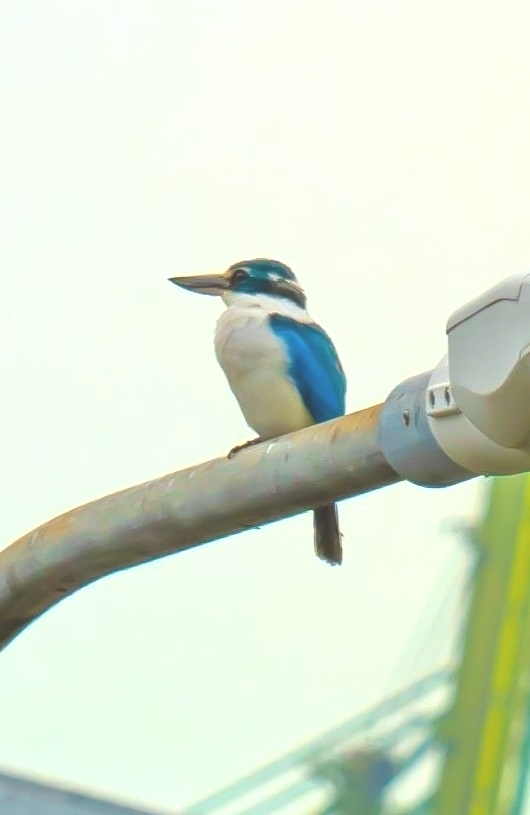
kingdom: Animalia
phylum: Chordata
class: Aves
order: Coraciiformes
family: Alcedinidae
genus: Todiramphus
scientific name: Todiramphus chloris
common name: Collared kingfisher
